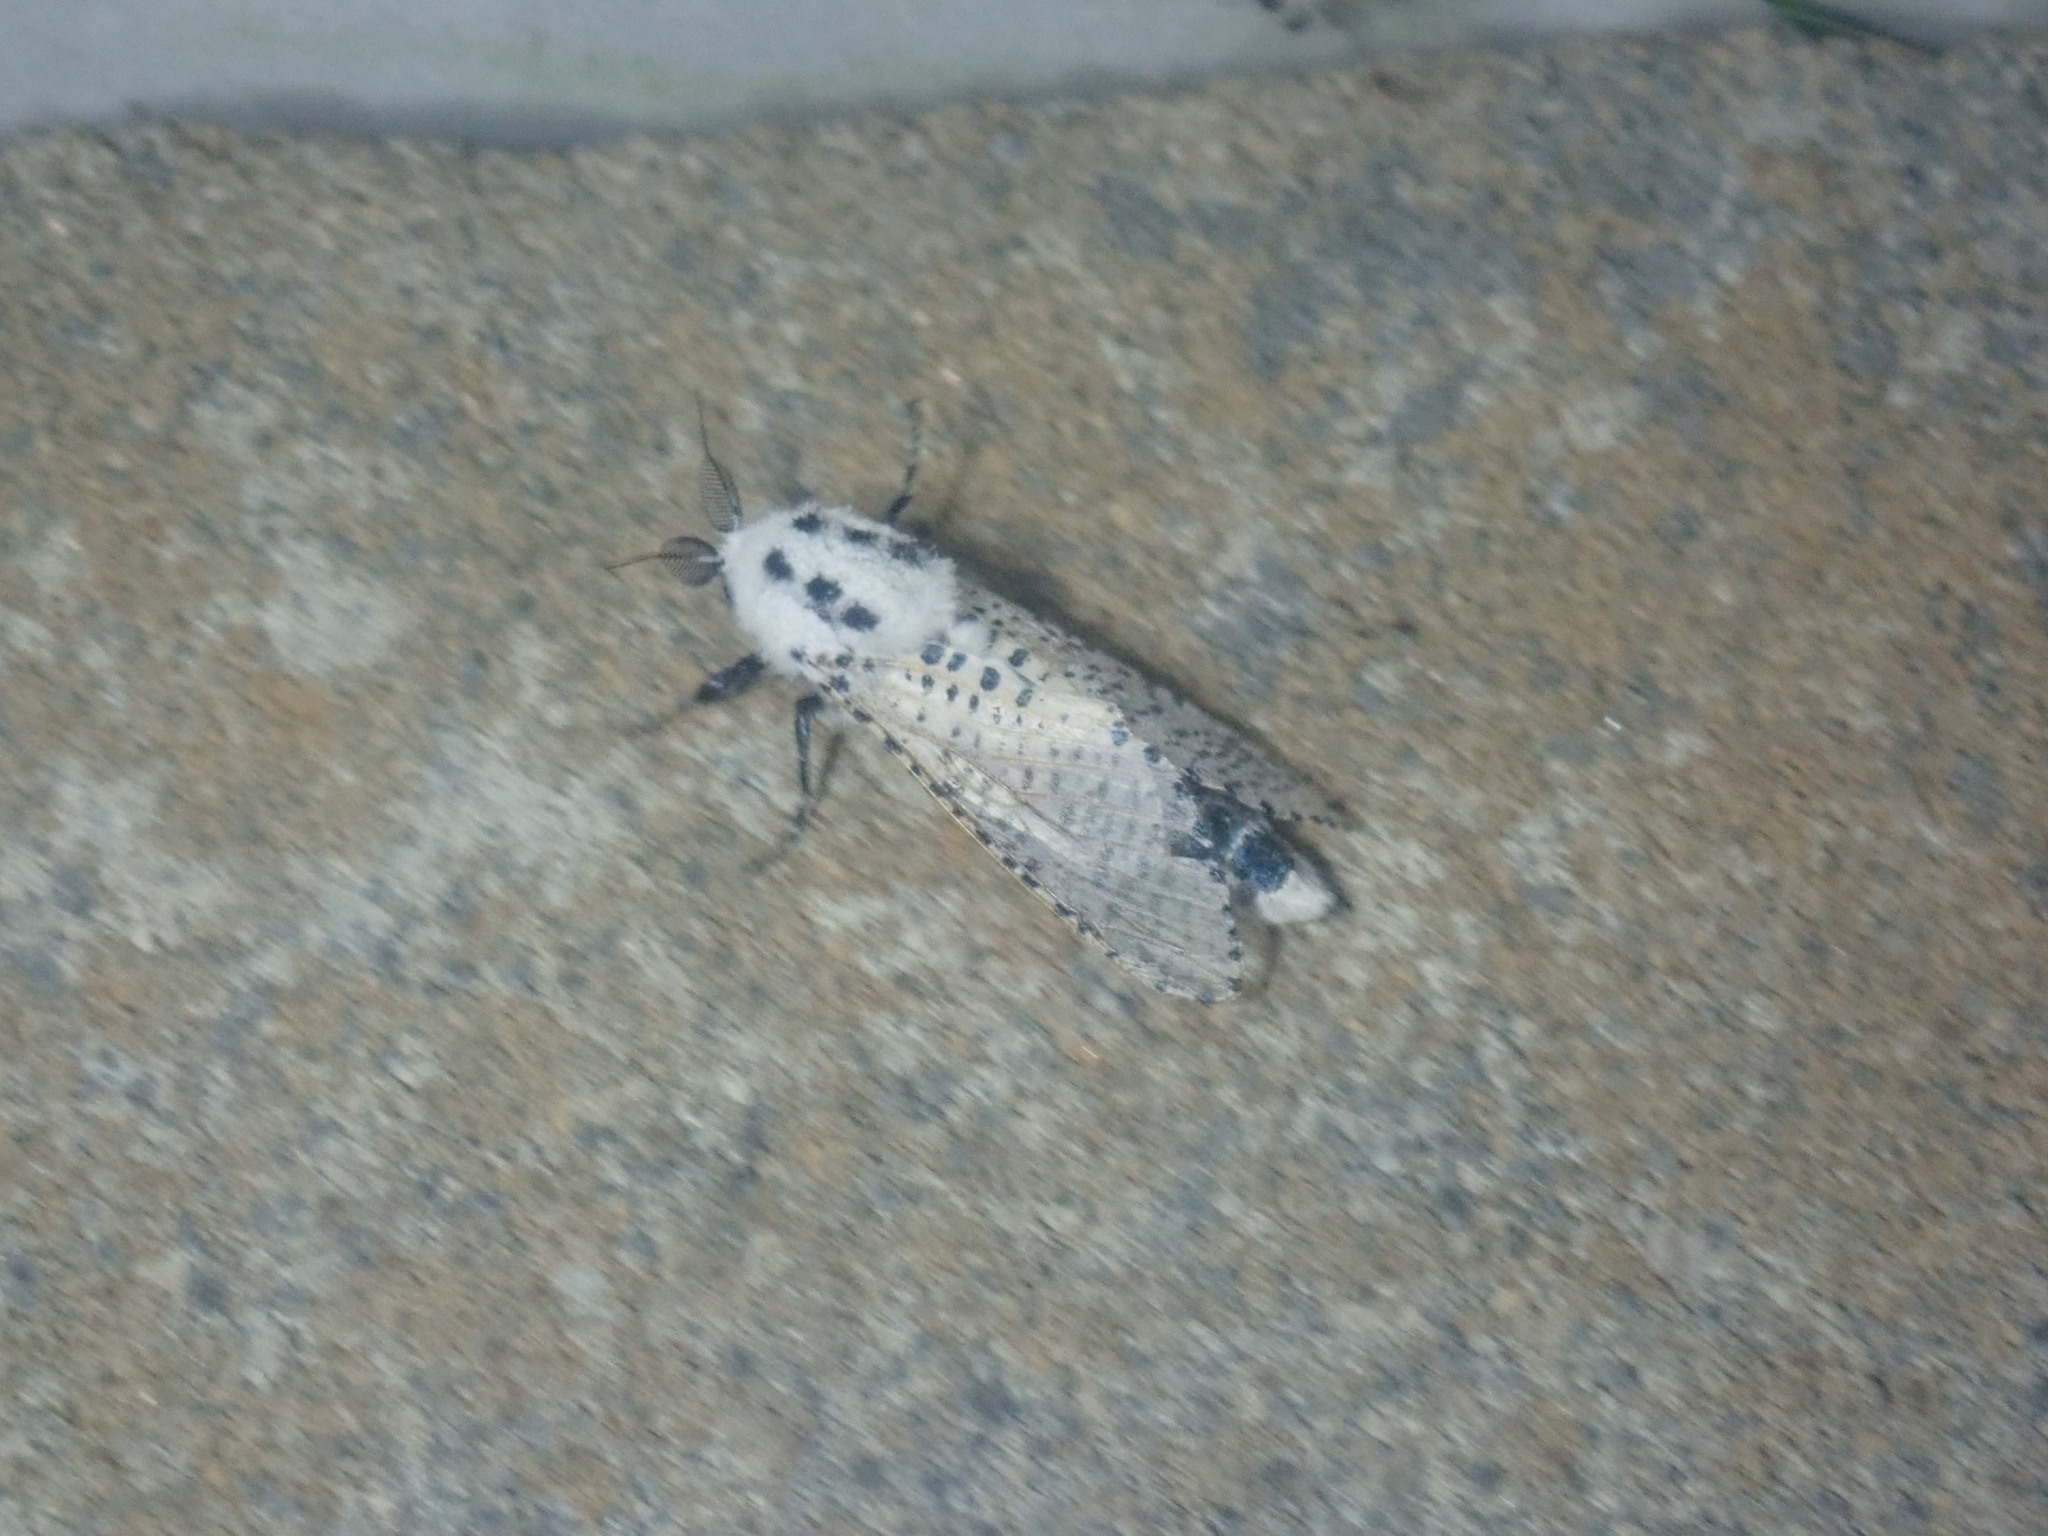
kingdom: Animalia
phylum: Arthropoda
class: Insecta
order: Lepidoptera
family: Cossidae
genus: Zeuzera
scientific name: Zeuzera pyrina
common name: Leopard moth
